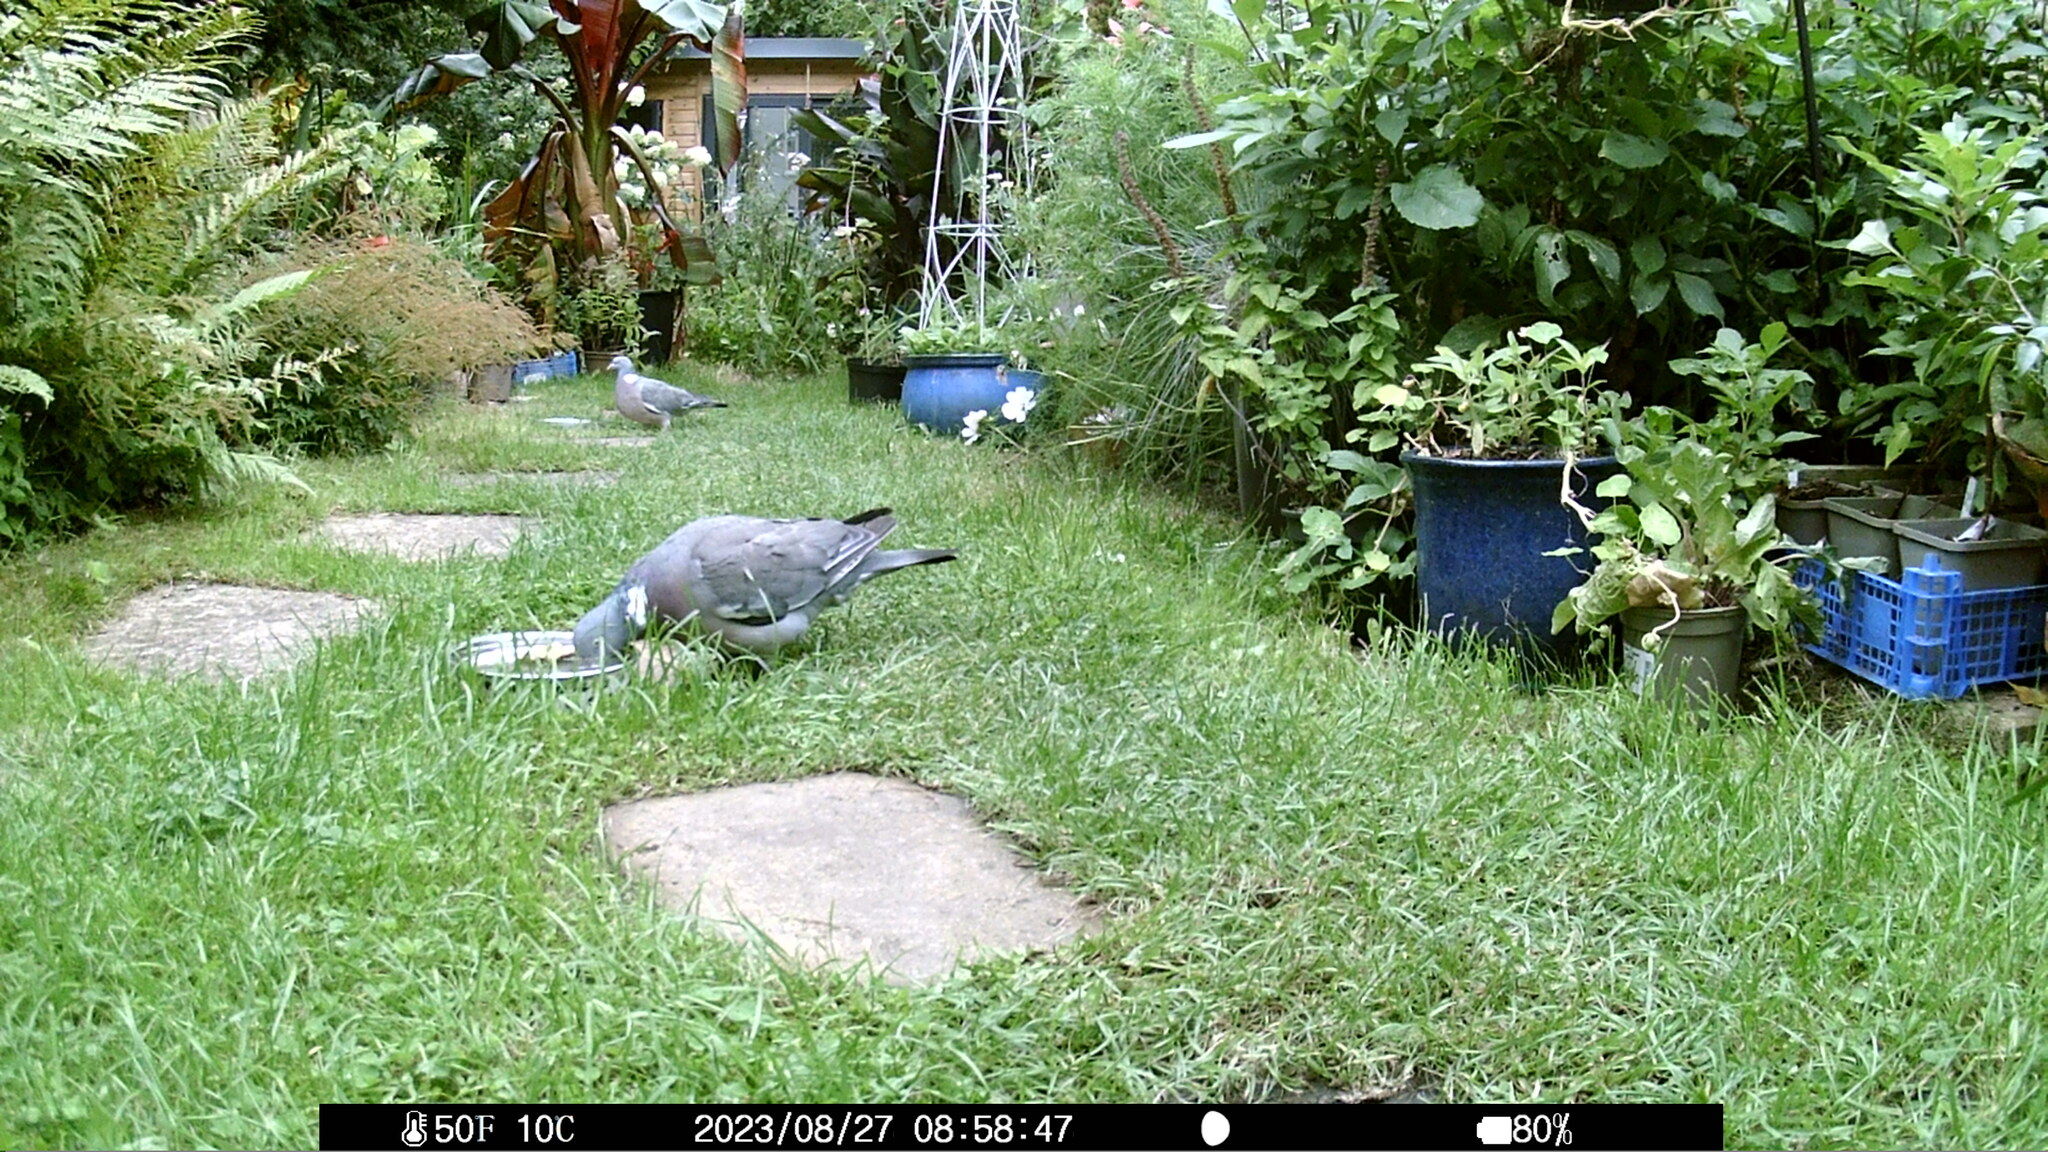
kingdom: Animalia
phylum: Chordata
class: Aves
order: Columbiformes
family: Columbidae
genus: Columba
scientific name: Columba palumbus
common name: Common wood pigeon
